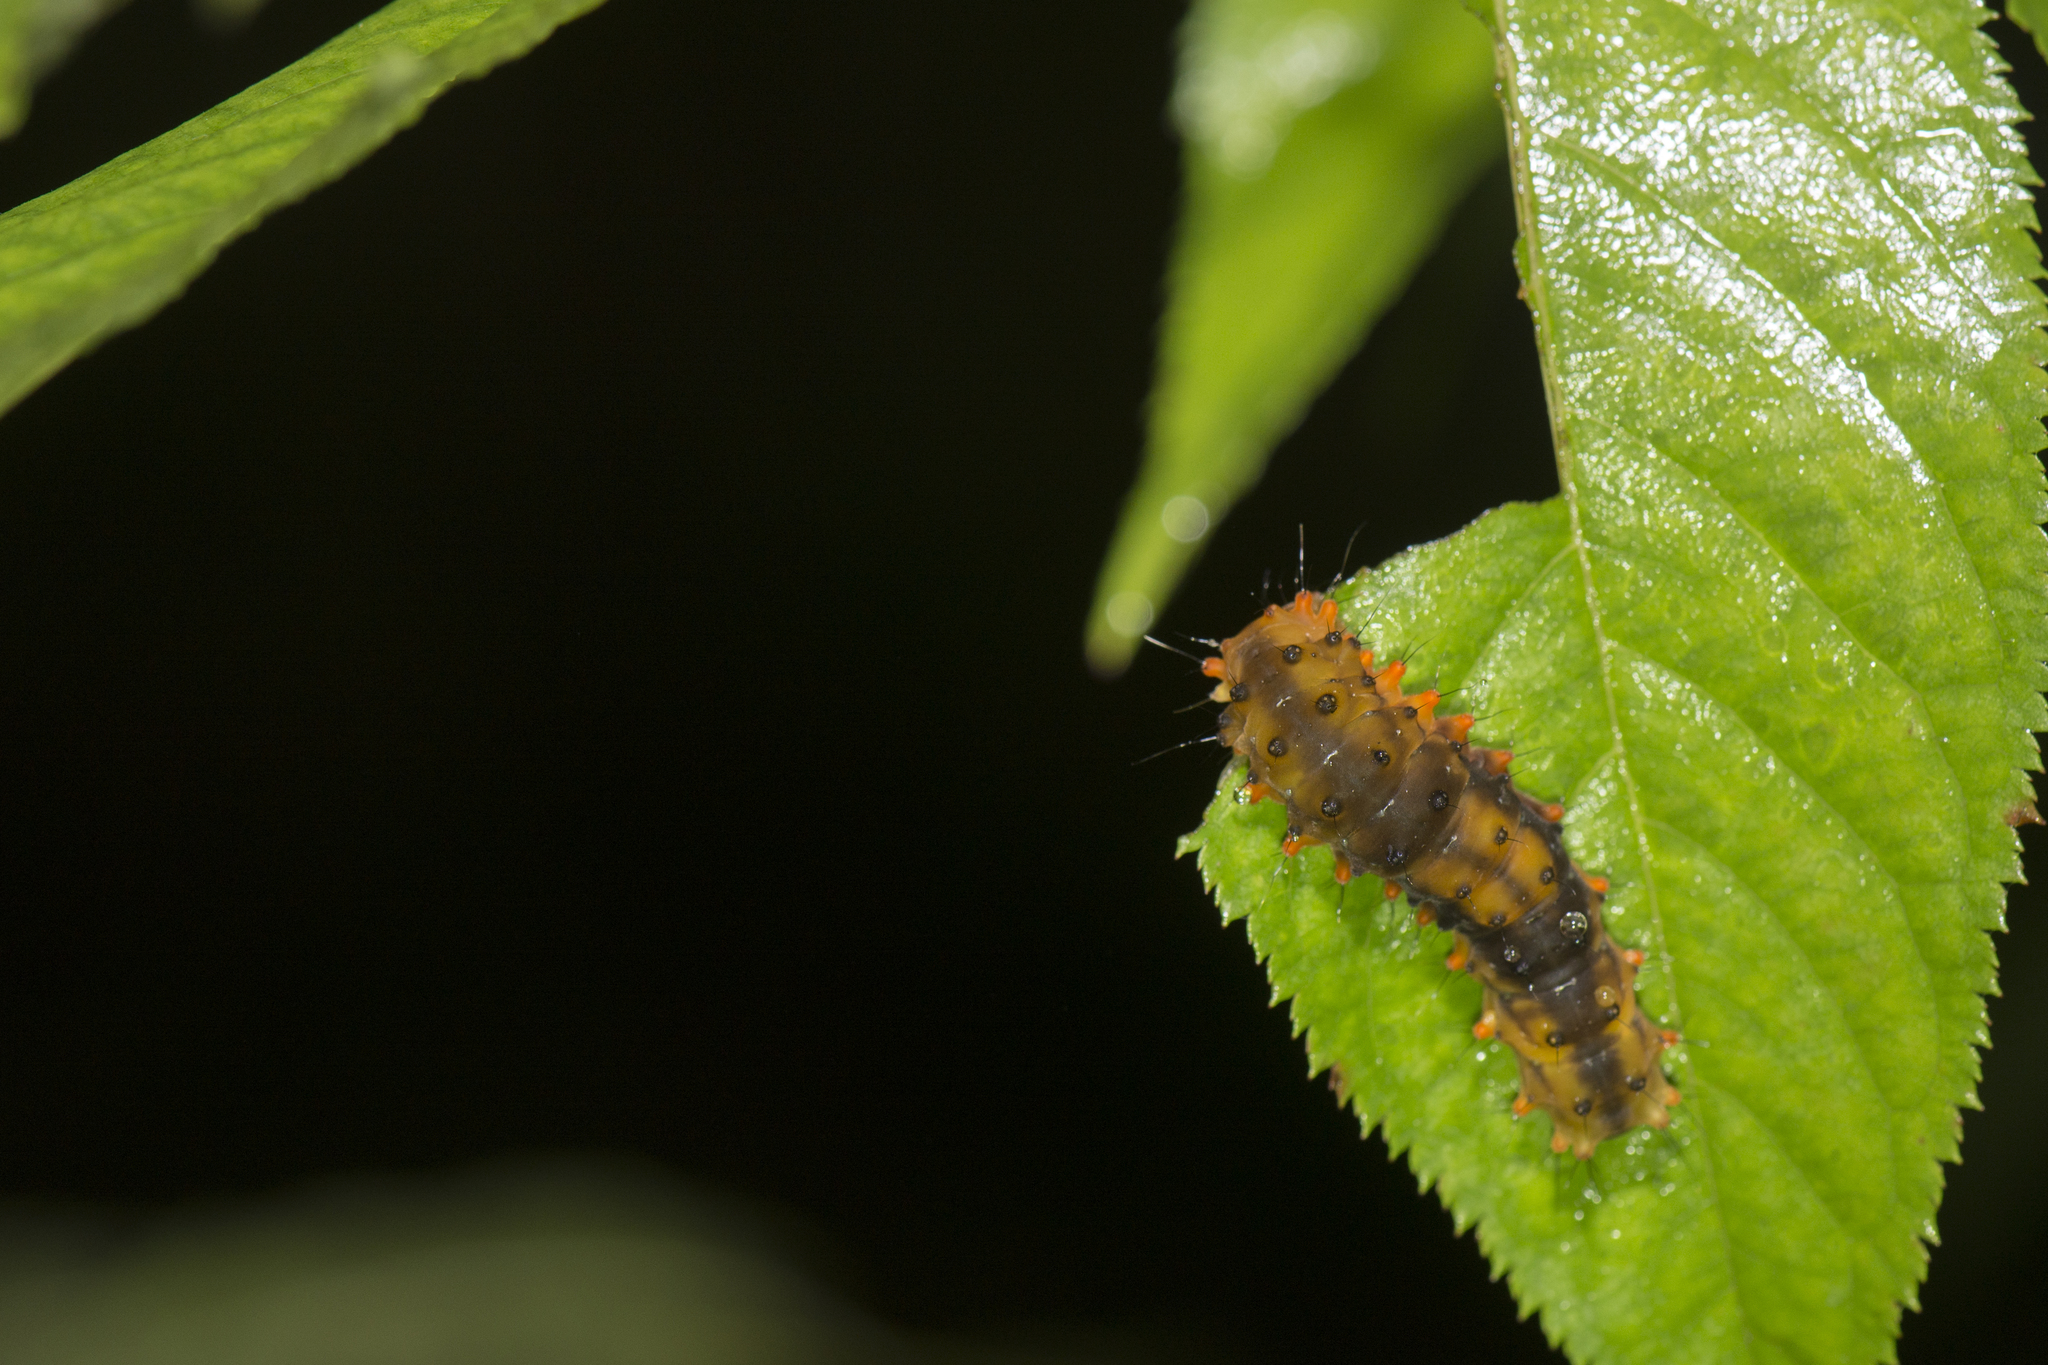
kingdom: Animalia
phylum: Arthropoda
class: Insecta
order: Lepidoptera
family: Zygaenidae
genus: Eterusia
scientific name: Eterusia aedea
